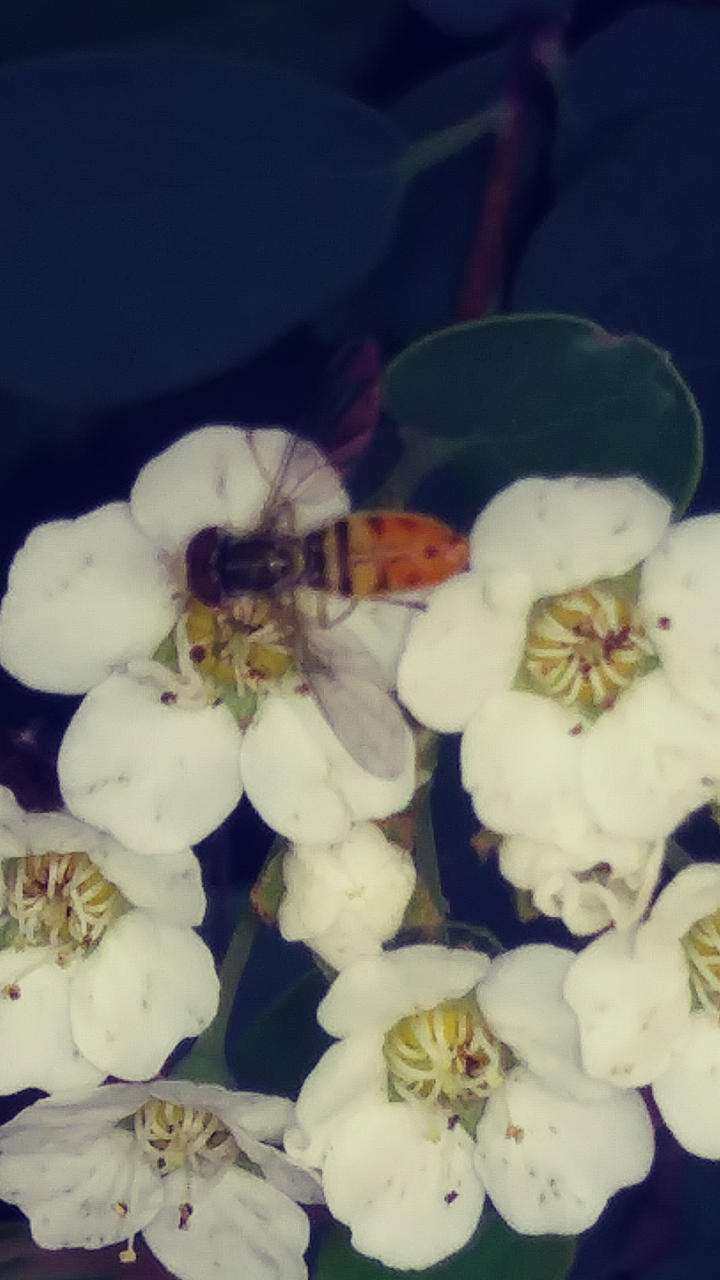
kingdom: Animalia
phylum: Arthropoda
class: Insecta
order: Diptera
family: Syrphidae
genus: Toxomerus
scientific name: Toxomerus marginatus
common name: Syrphid fly
